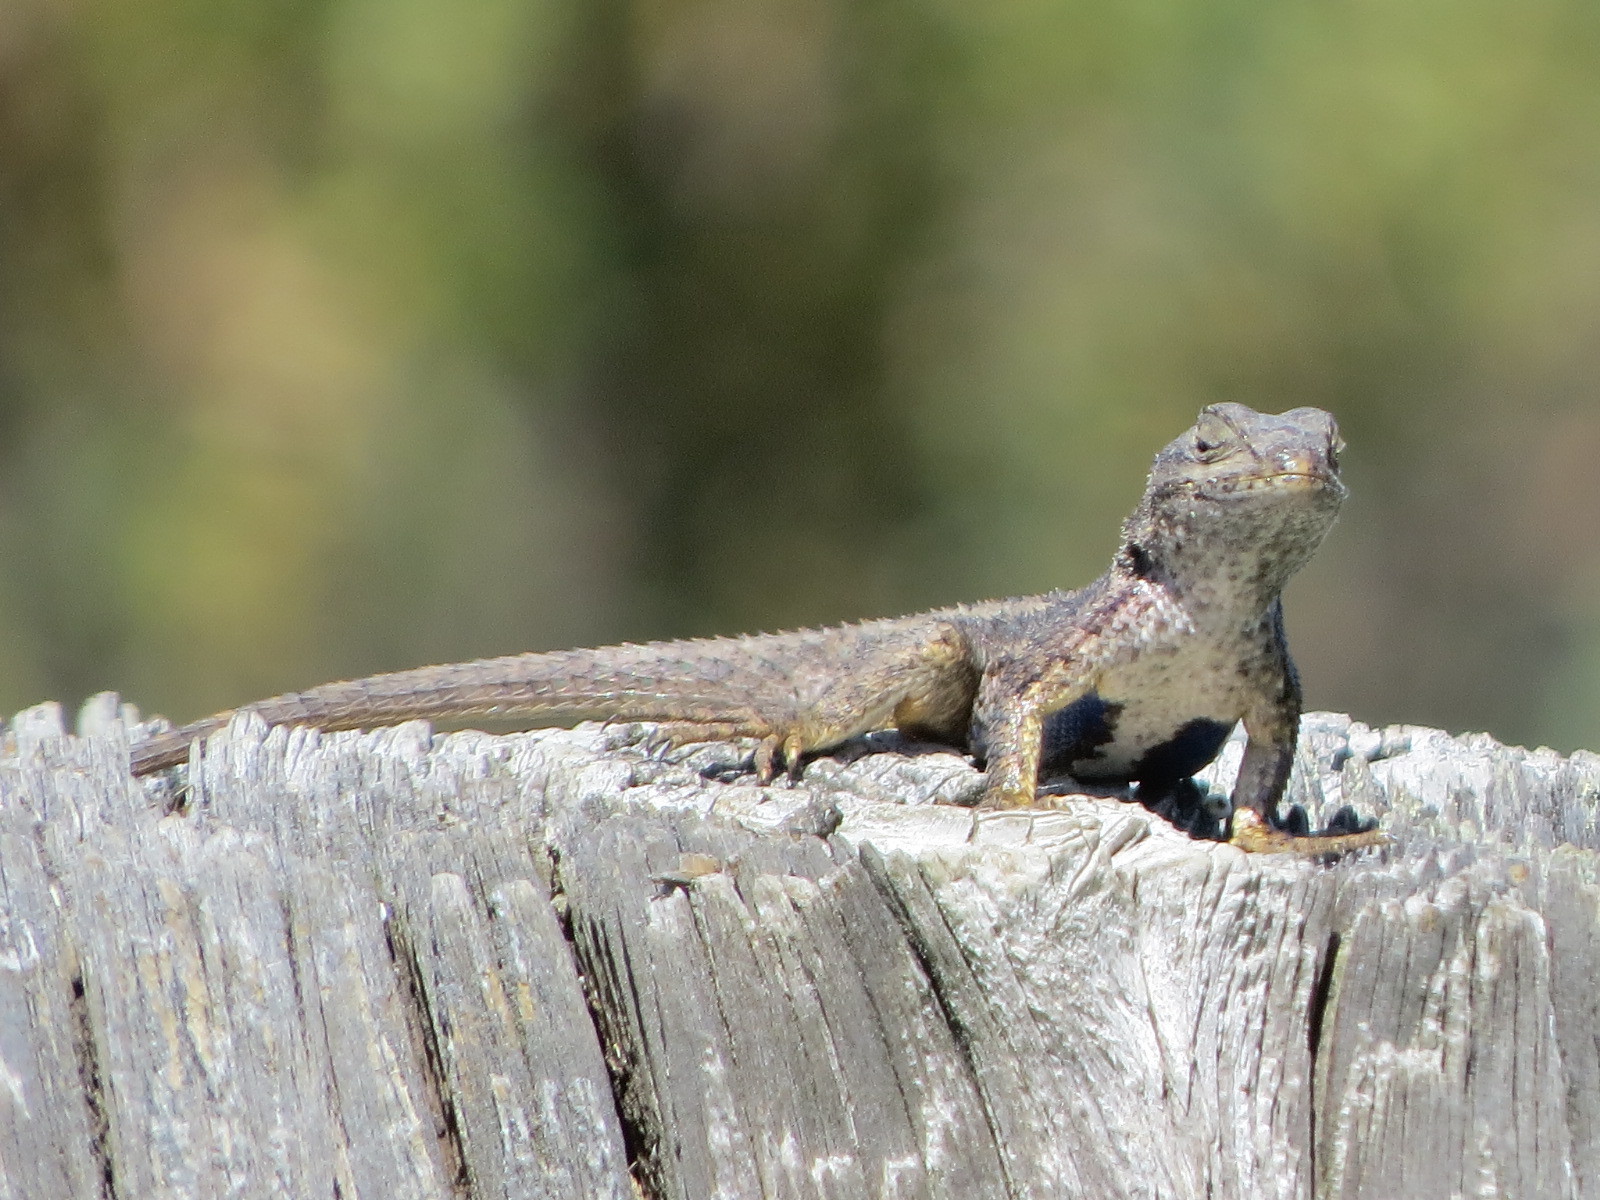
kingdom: Animalia
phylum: Chordata
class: Squamata
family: Phrynosomatidae
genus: Sceloporus
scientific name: Sceloporus occidentalis
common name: Western fence lizard
